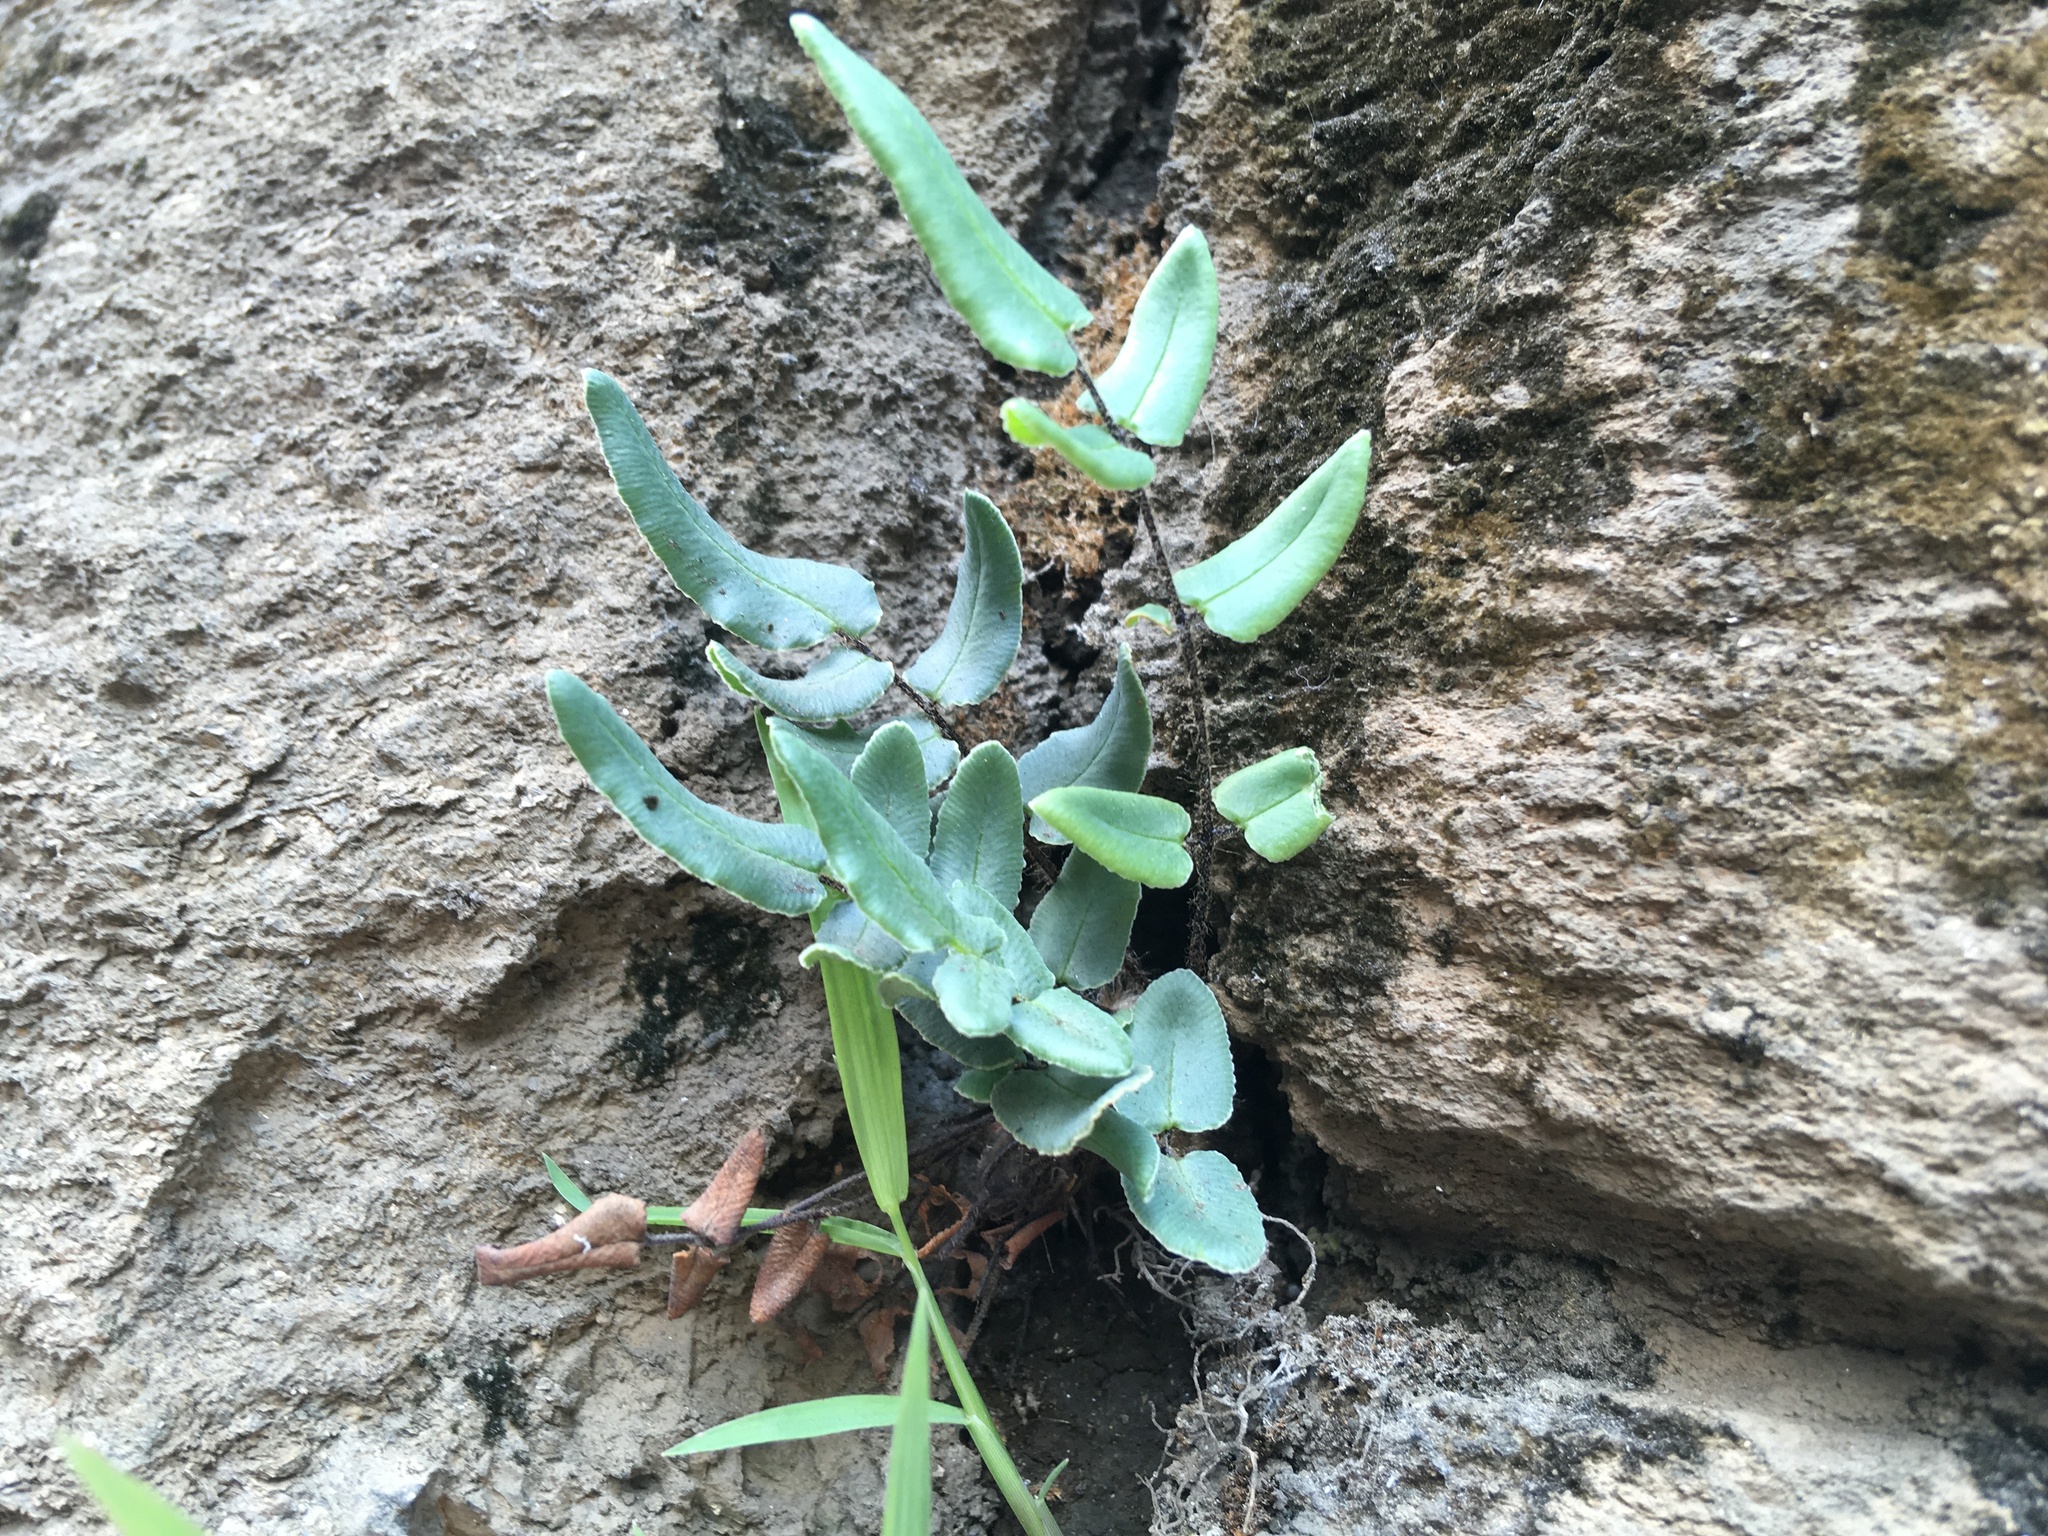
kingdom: Plantae
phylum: Tracheophyta
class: Polypodiopsida
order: Polypodiales
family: Pteridaceae
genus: Pellaea
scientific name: Pellaea atropurpurea
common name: Hairy cliffbrake
